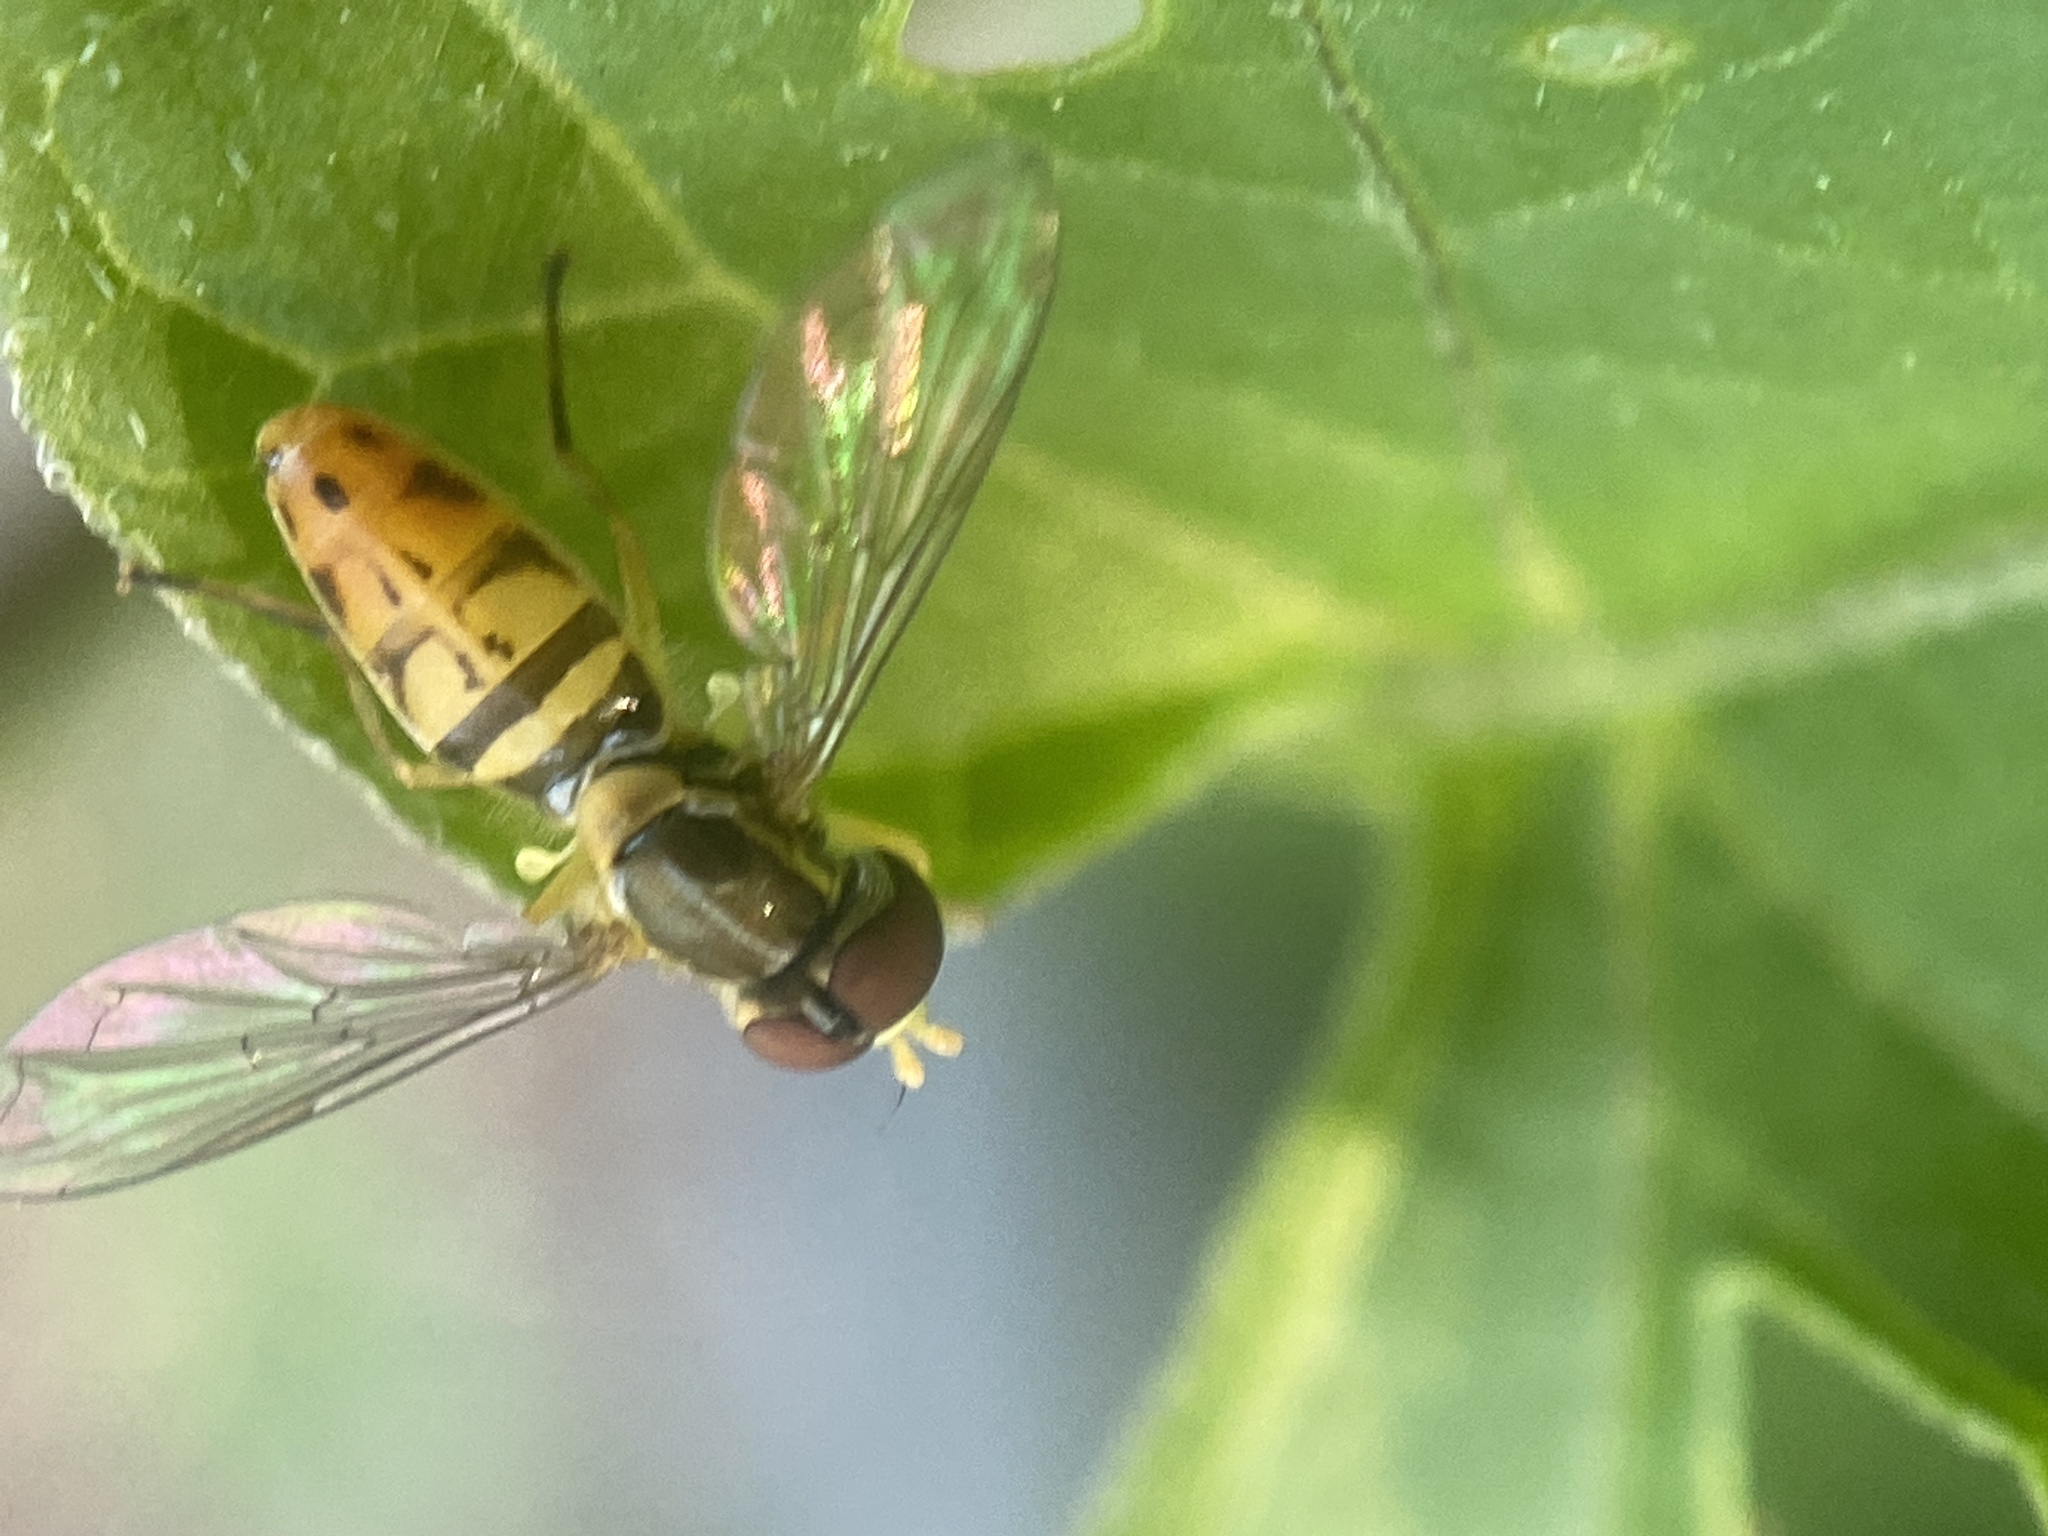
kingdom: Animalia
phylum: Arthropoda
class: Insecta
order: Diptera
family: Syrphidae
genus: Toxomerus
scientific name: Toxomerus marginatus
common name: Syrphid fly
